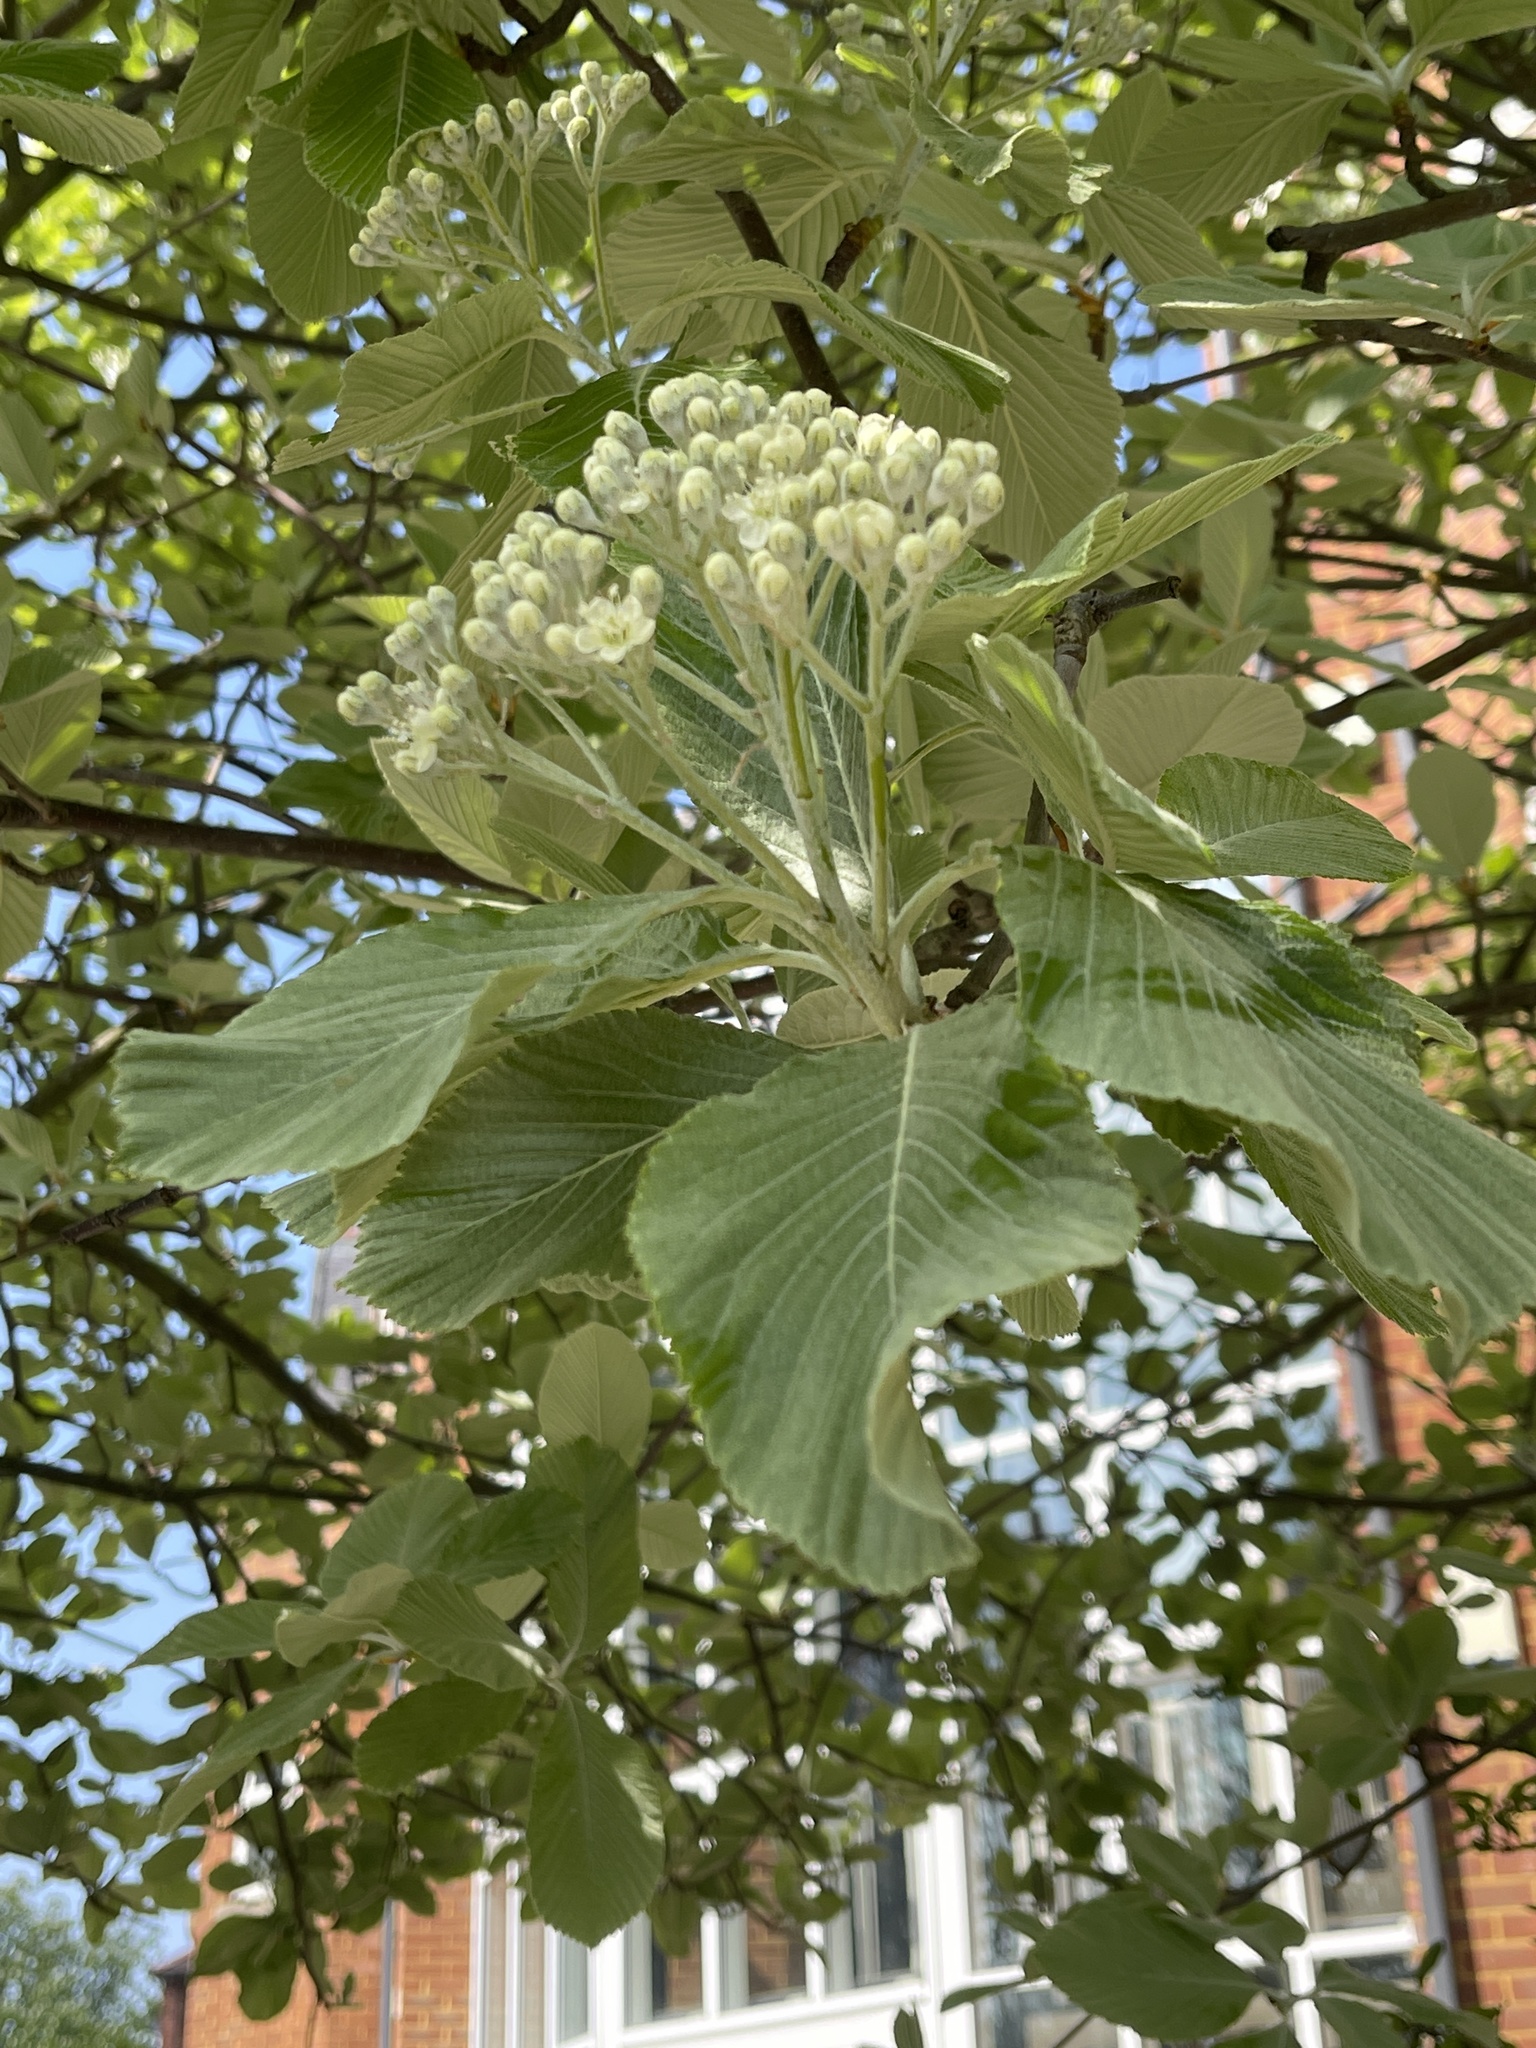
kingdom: Plantae
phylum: Tracheophyta
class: Magnoliopsida
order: Rosales
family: Rosaceae
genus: Aria
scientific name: Aria edulis
